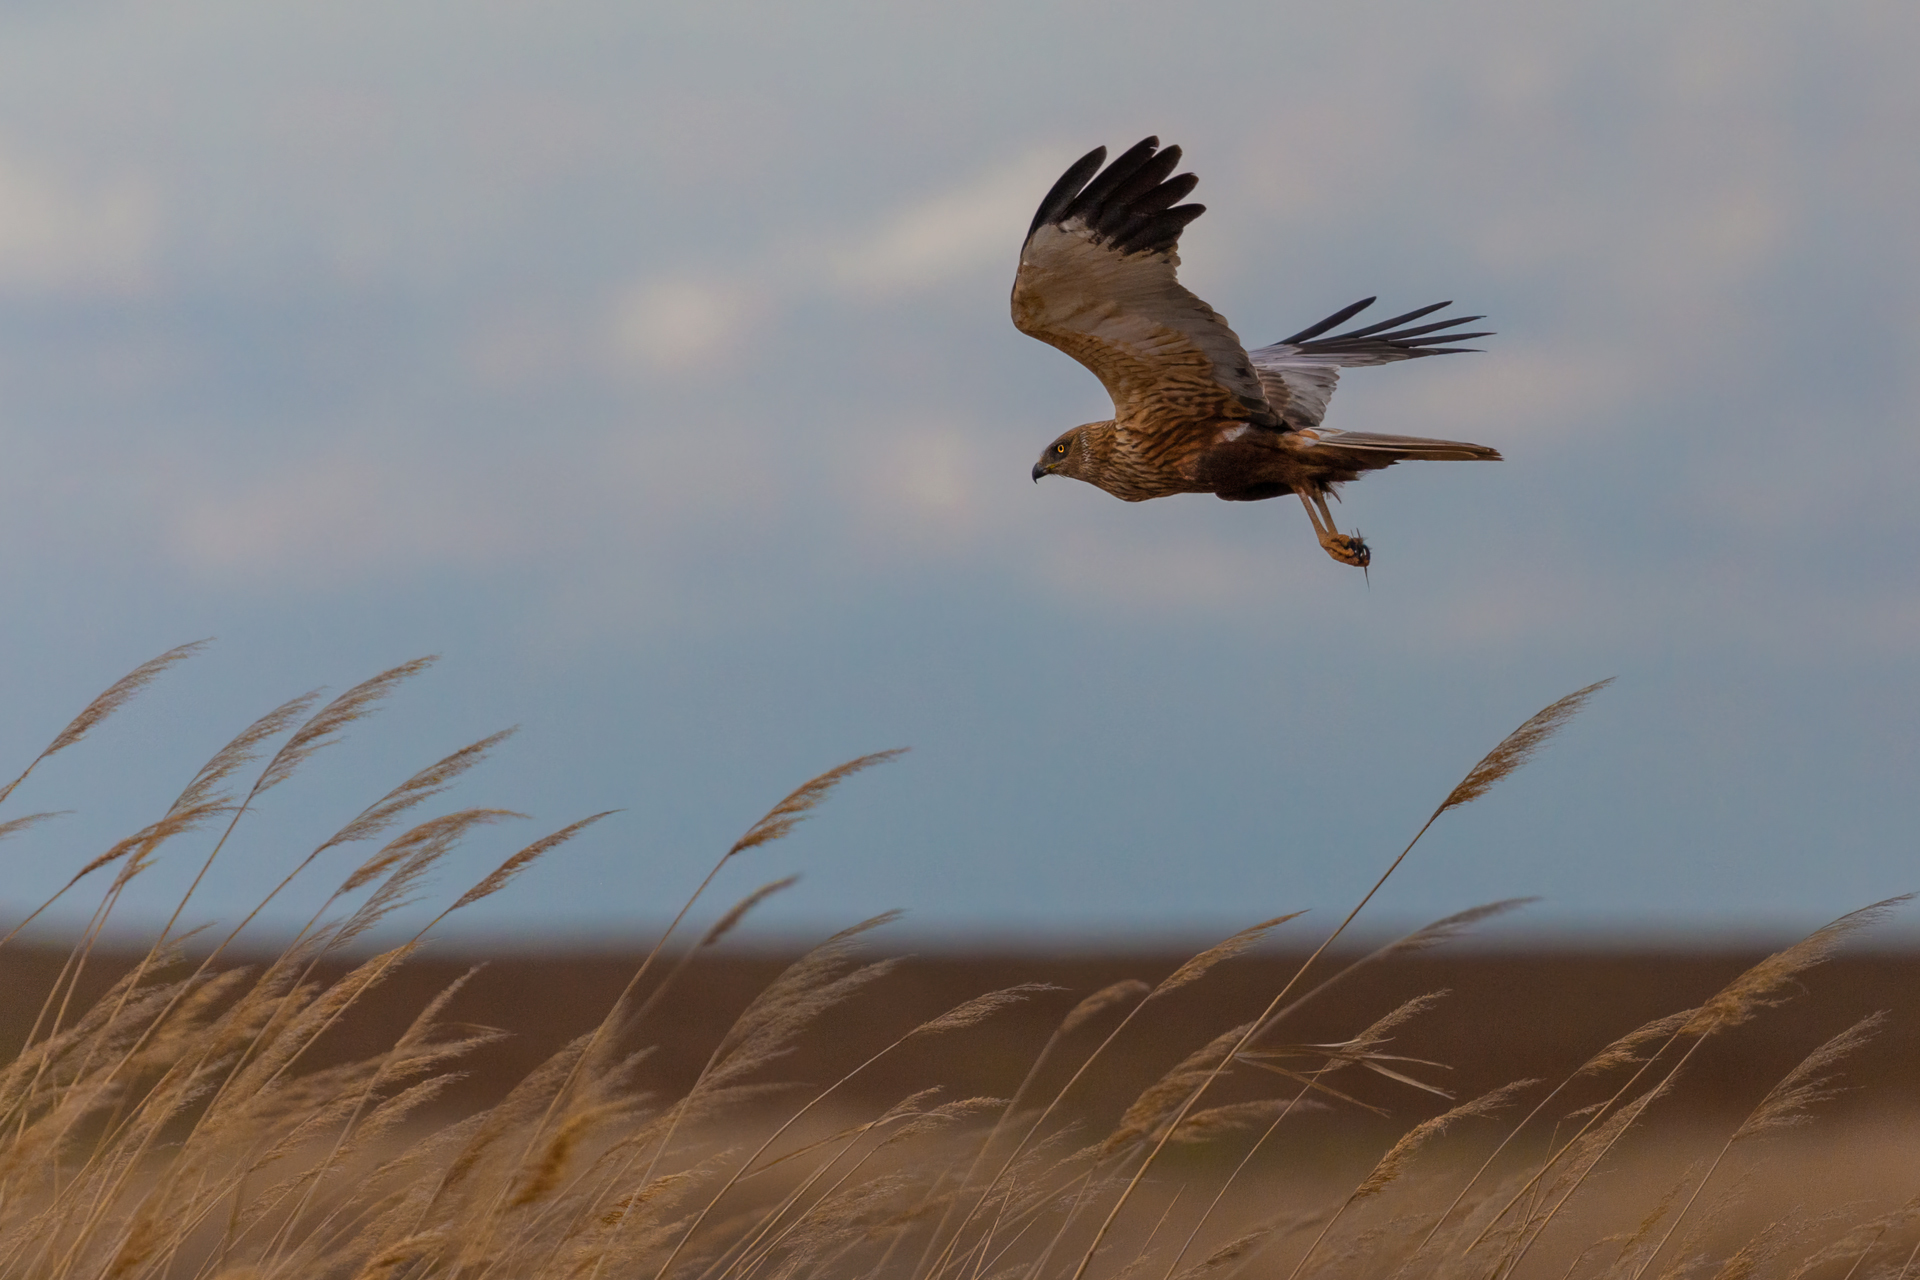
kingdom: Animalia
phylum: Chordata
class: Aves
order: Accipitriformes
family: Accipitridae
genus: Circus
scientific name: Circus aeruginosus
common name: Western marsh harrier
